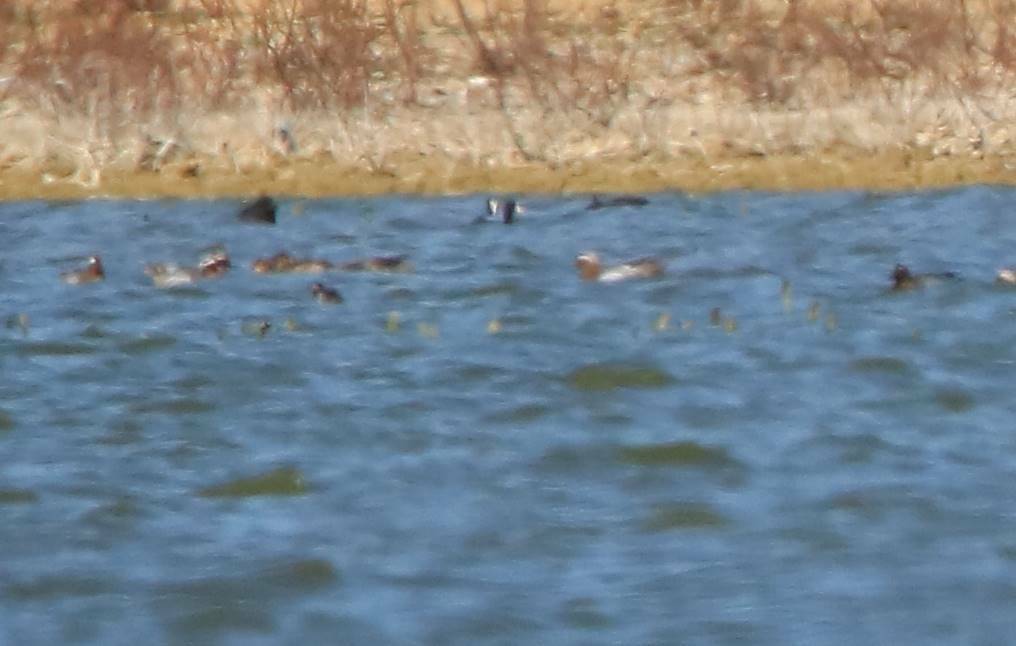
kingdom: Animalia
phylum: Chordata
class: Aves
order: Anseriformes
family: Anatidae
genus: Spatula
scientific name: Spatula querquedula
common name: Garganey
